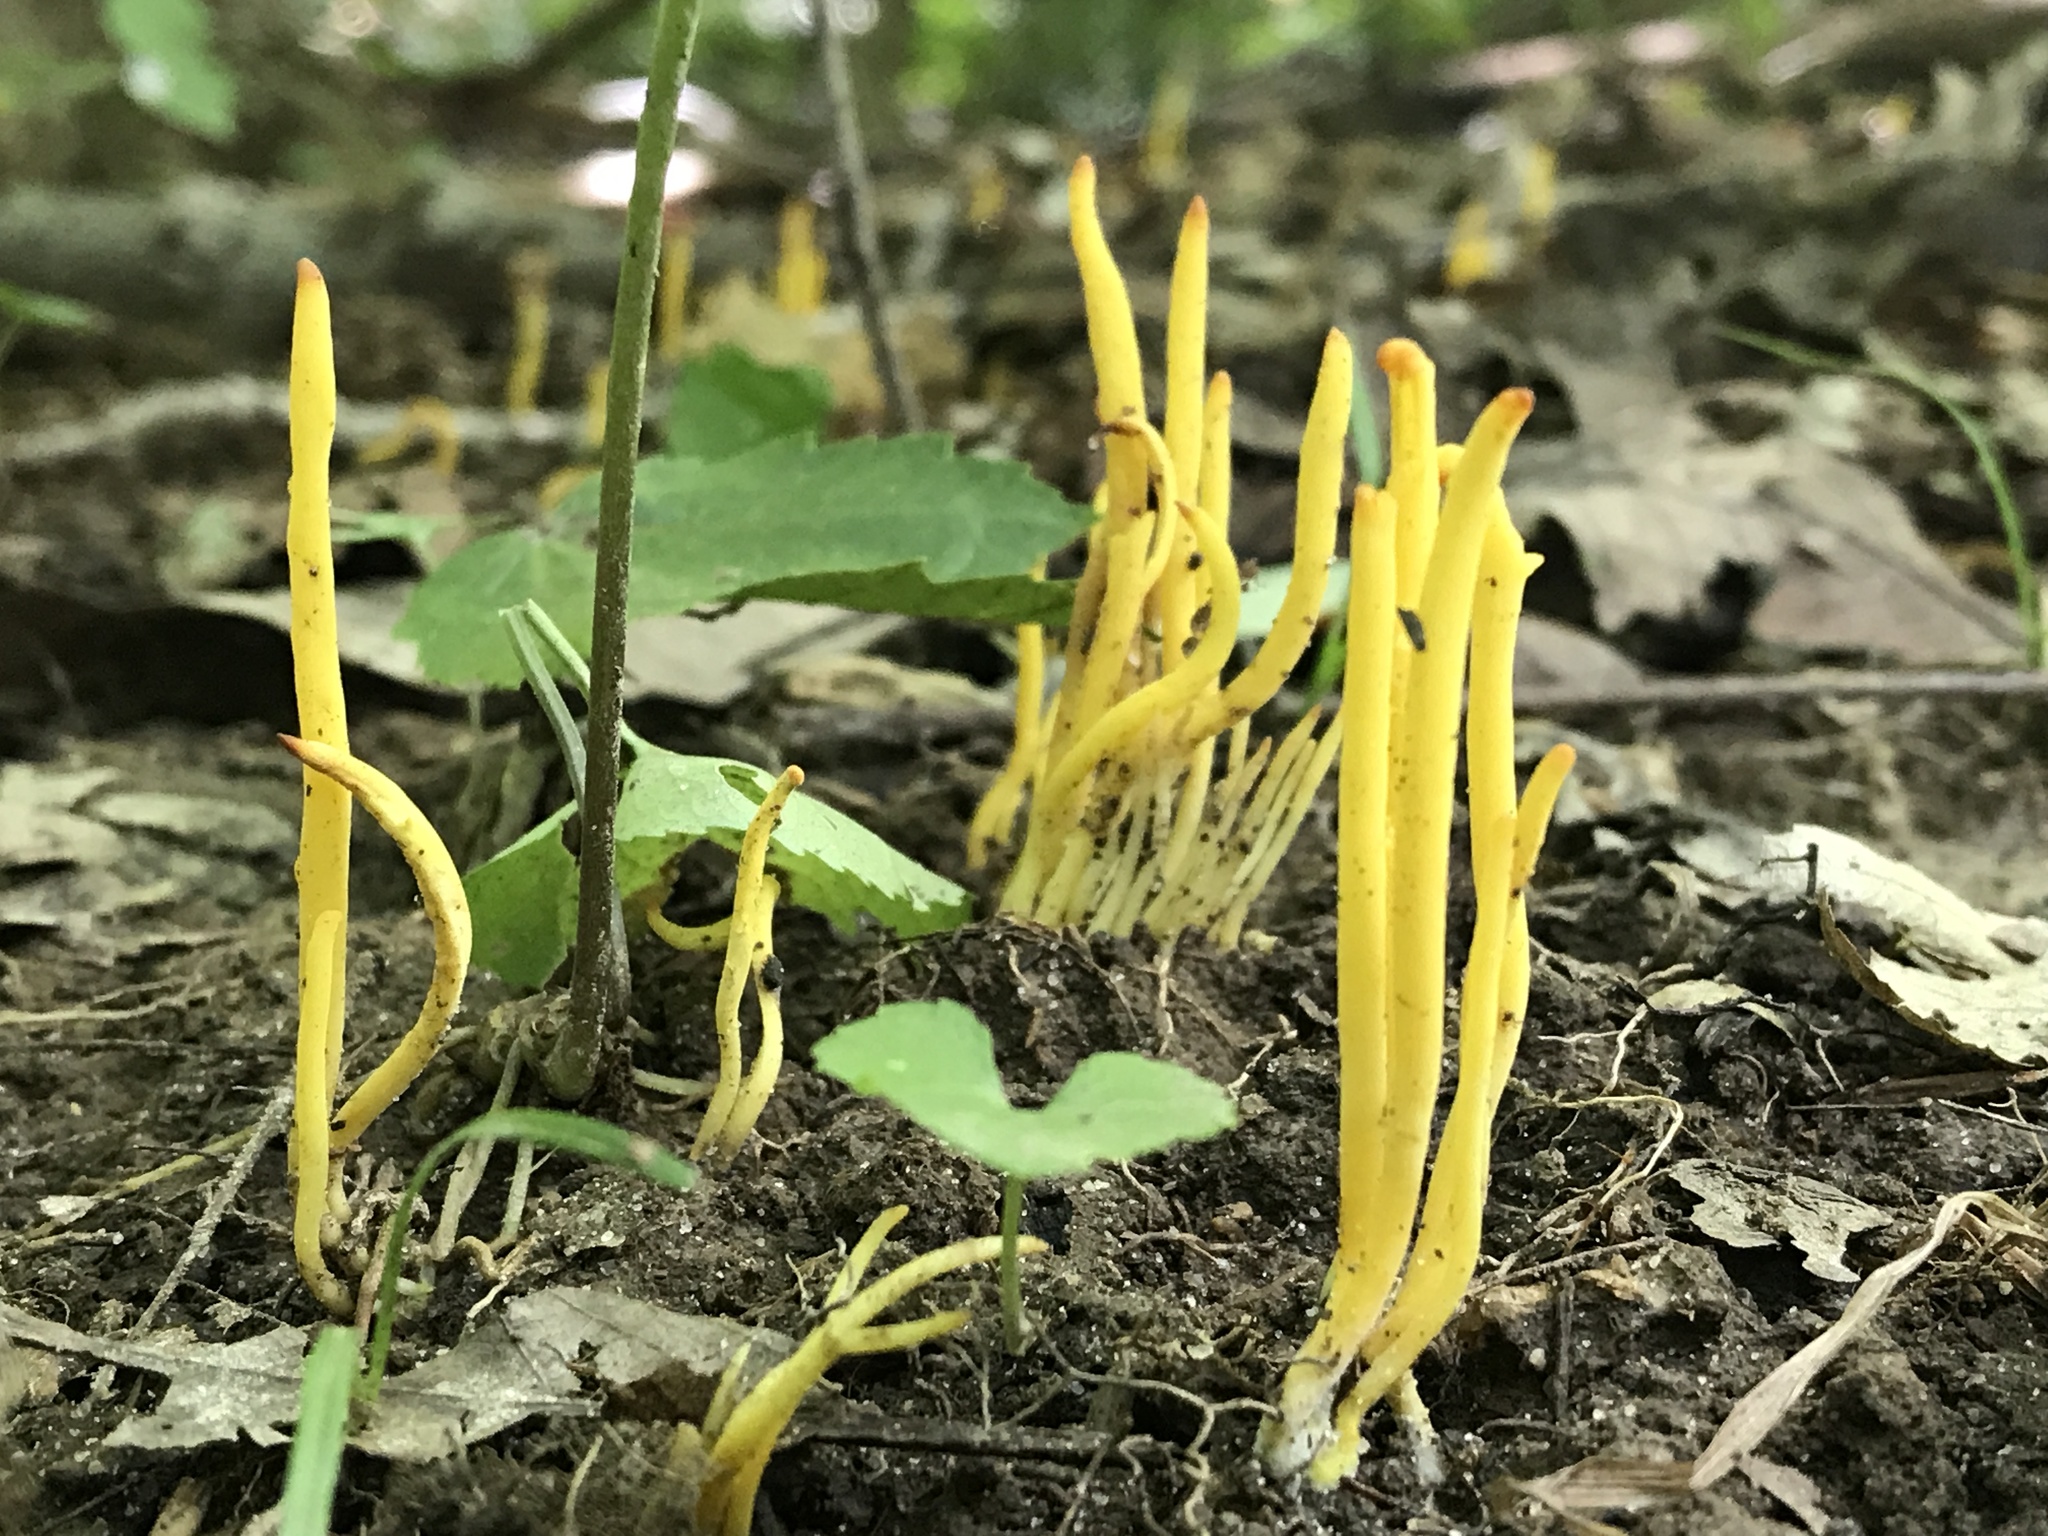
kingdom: Fungi
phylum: Basidiomycota
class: Agaricomycetes
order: Agaricales
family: Clavariaceae
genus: Clavulinopsis
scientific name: Clavulinopsis fusiformis
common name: Golden spindles
